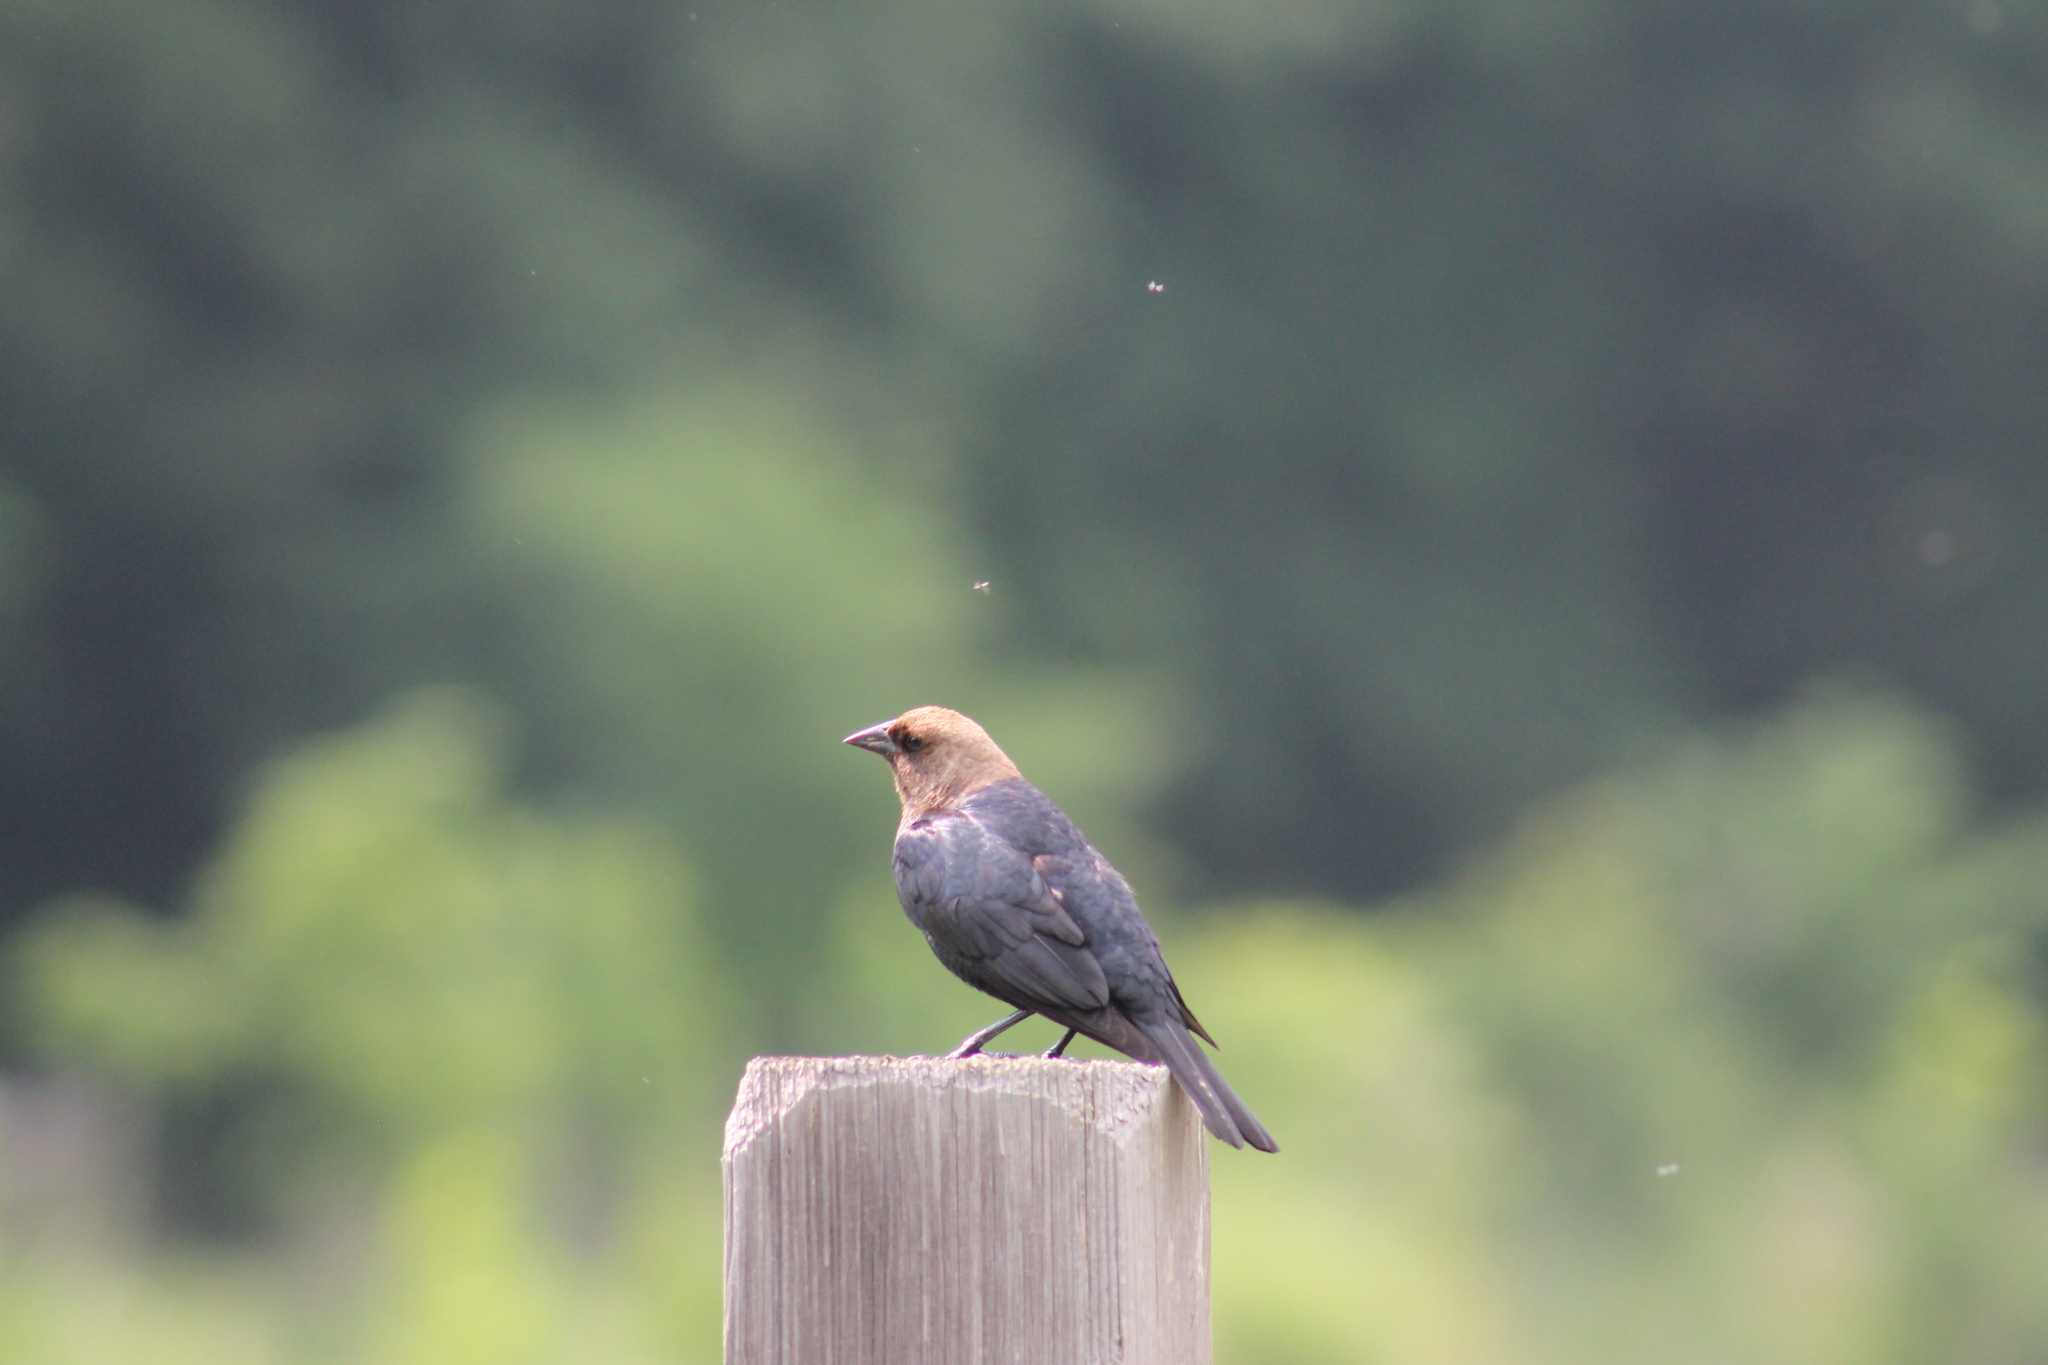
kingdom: Animalia
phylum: Chordata
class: Aves
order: Passeriformes
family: Icteridae
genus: Molothrus
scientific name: Molothrus ater
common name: Brown-headed cowbird
